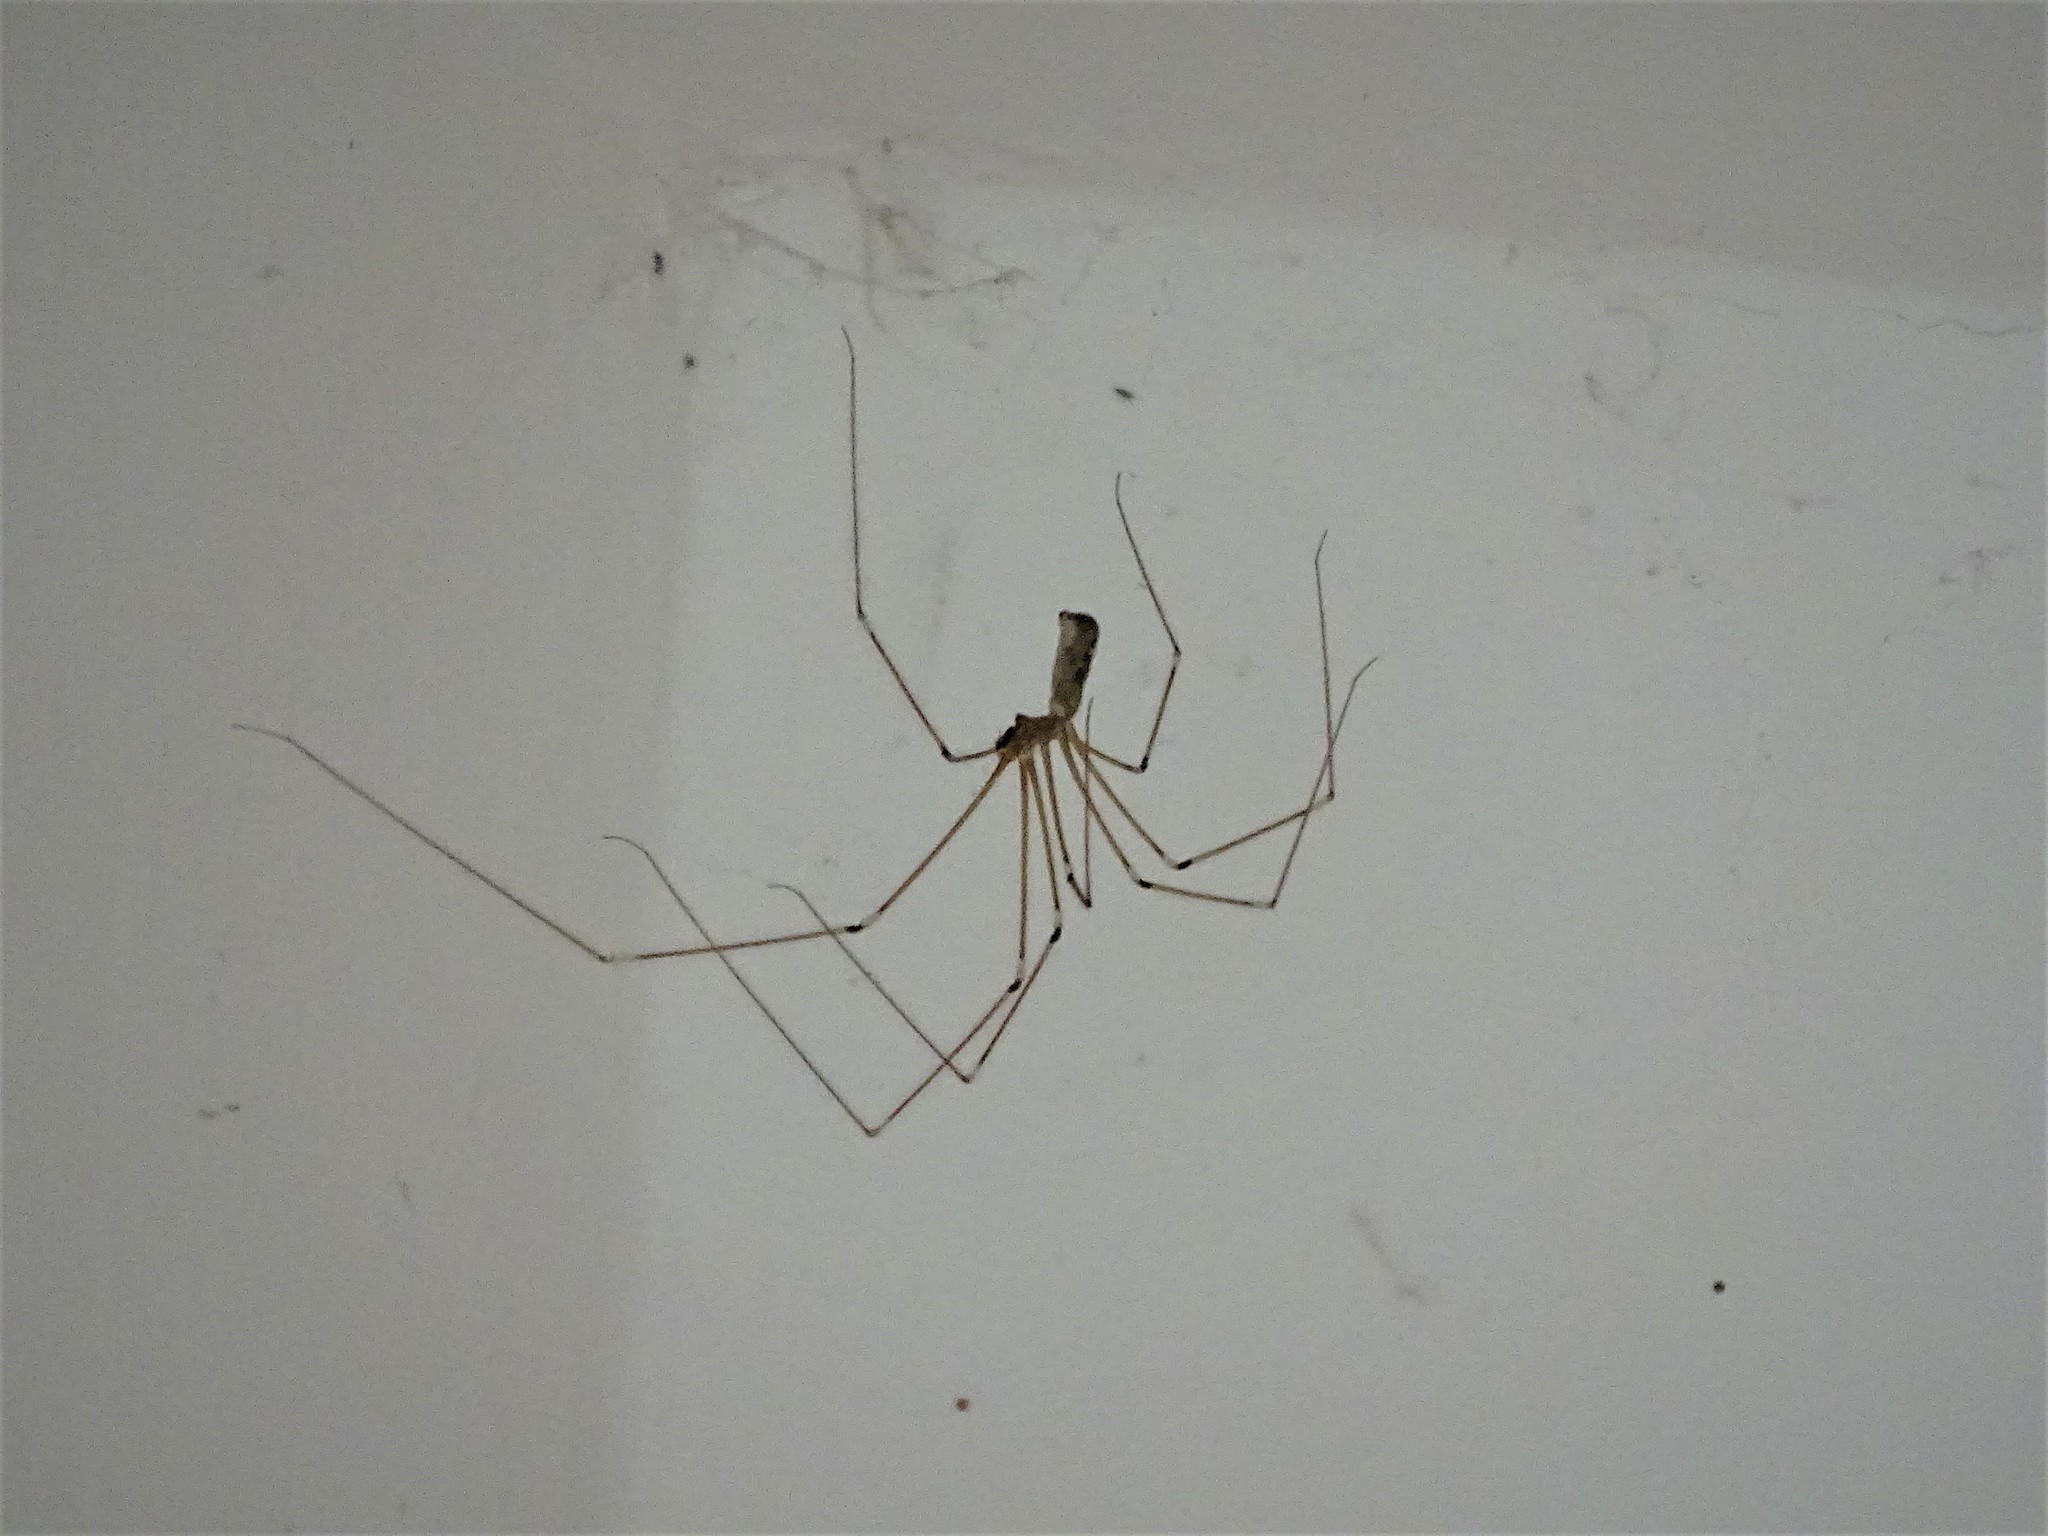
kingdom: Animalia
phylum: Arthropoda
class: Arachnida
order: Araneae
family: Pholcidae
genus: Pholcus
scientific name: Pholcus phalangioides
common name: Longbodied cellar spider
